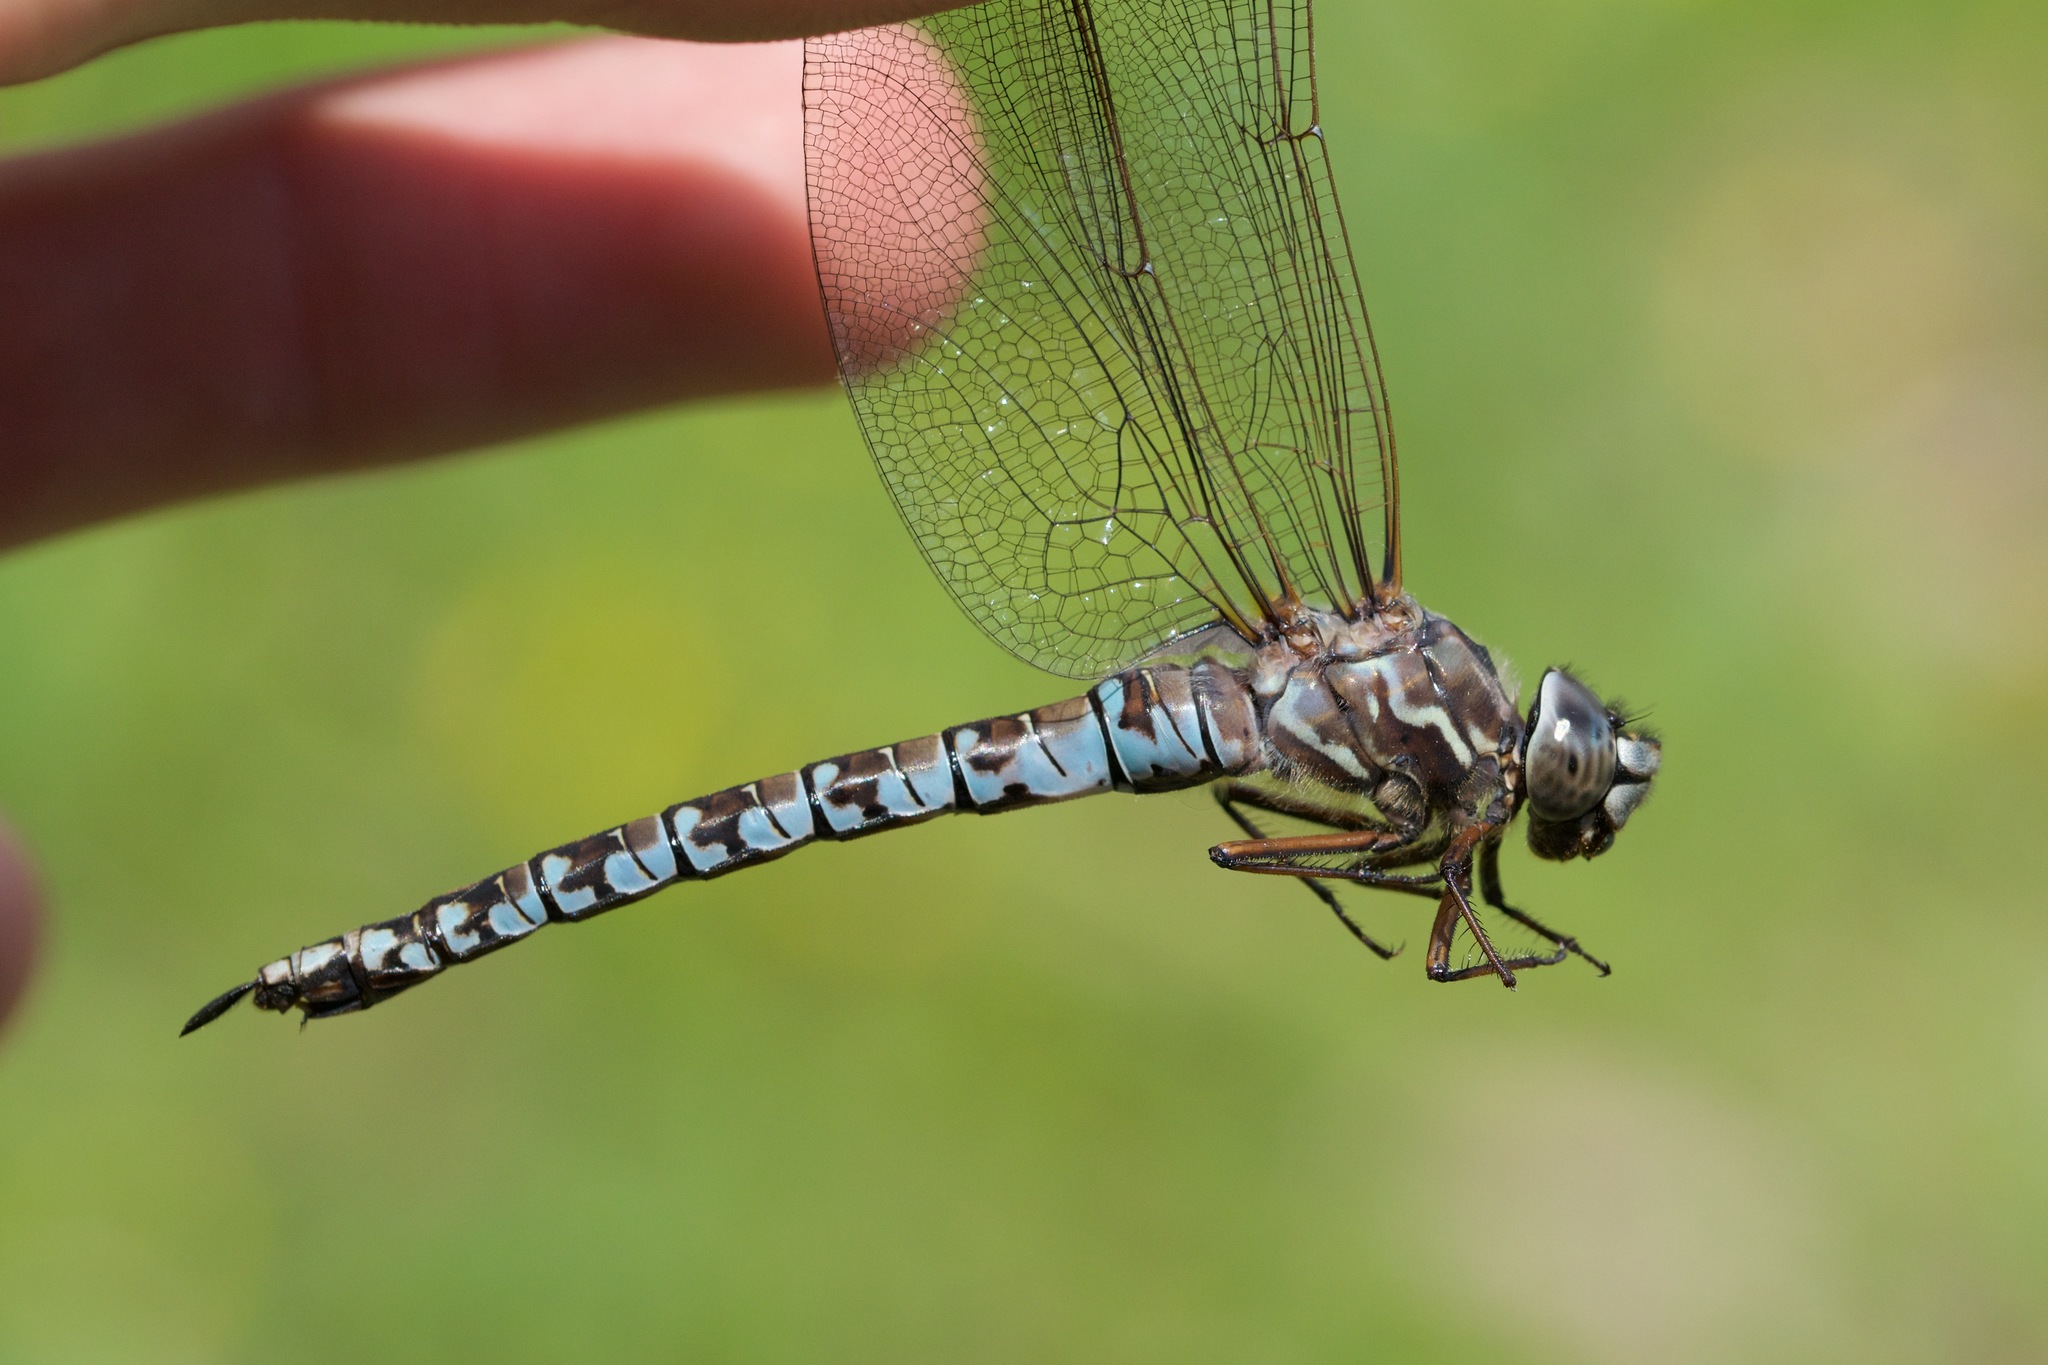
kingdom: Animalia
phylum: Arthropoda
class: Insecta
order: Odonata
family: Aeshnidae
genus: Aeshna
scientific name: Aeshna sitchensis
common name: Zigzag darner
